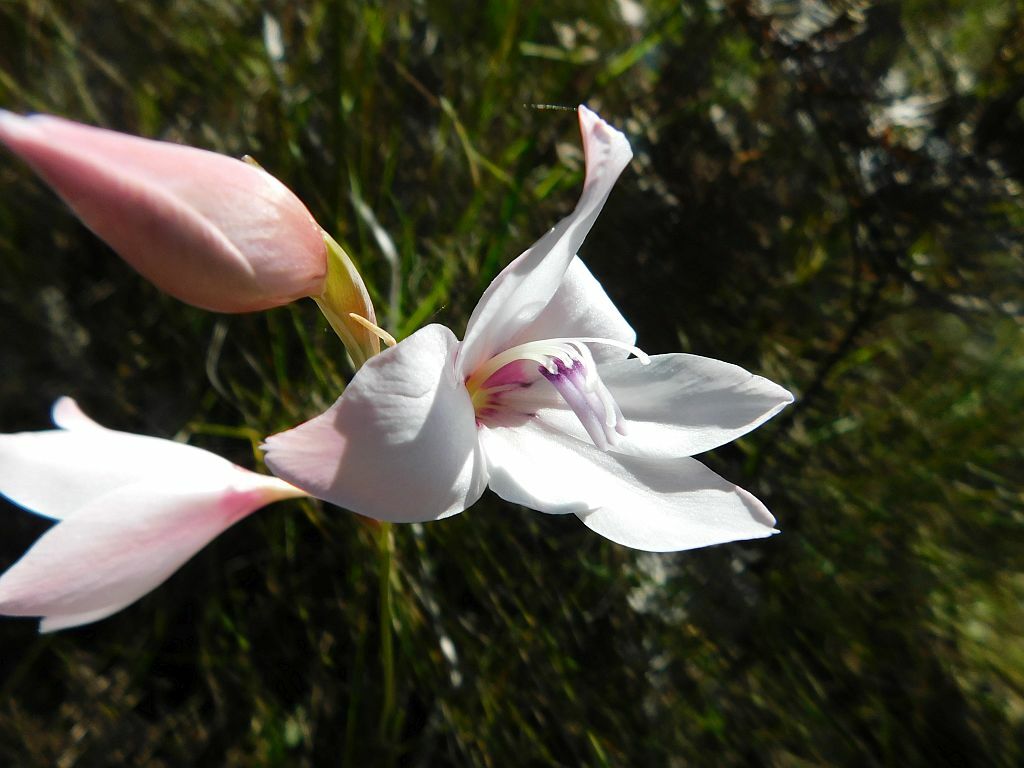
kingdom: Plantae
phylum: Tracheophyta
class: Liliopsida
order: Asparagales
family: Iridaceae
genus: Gladiolus
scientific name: Gladiolus carneus
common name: Painted-lady
